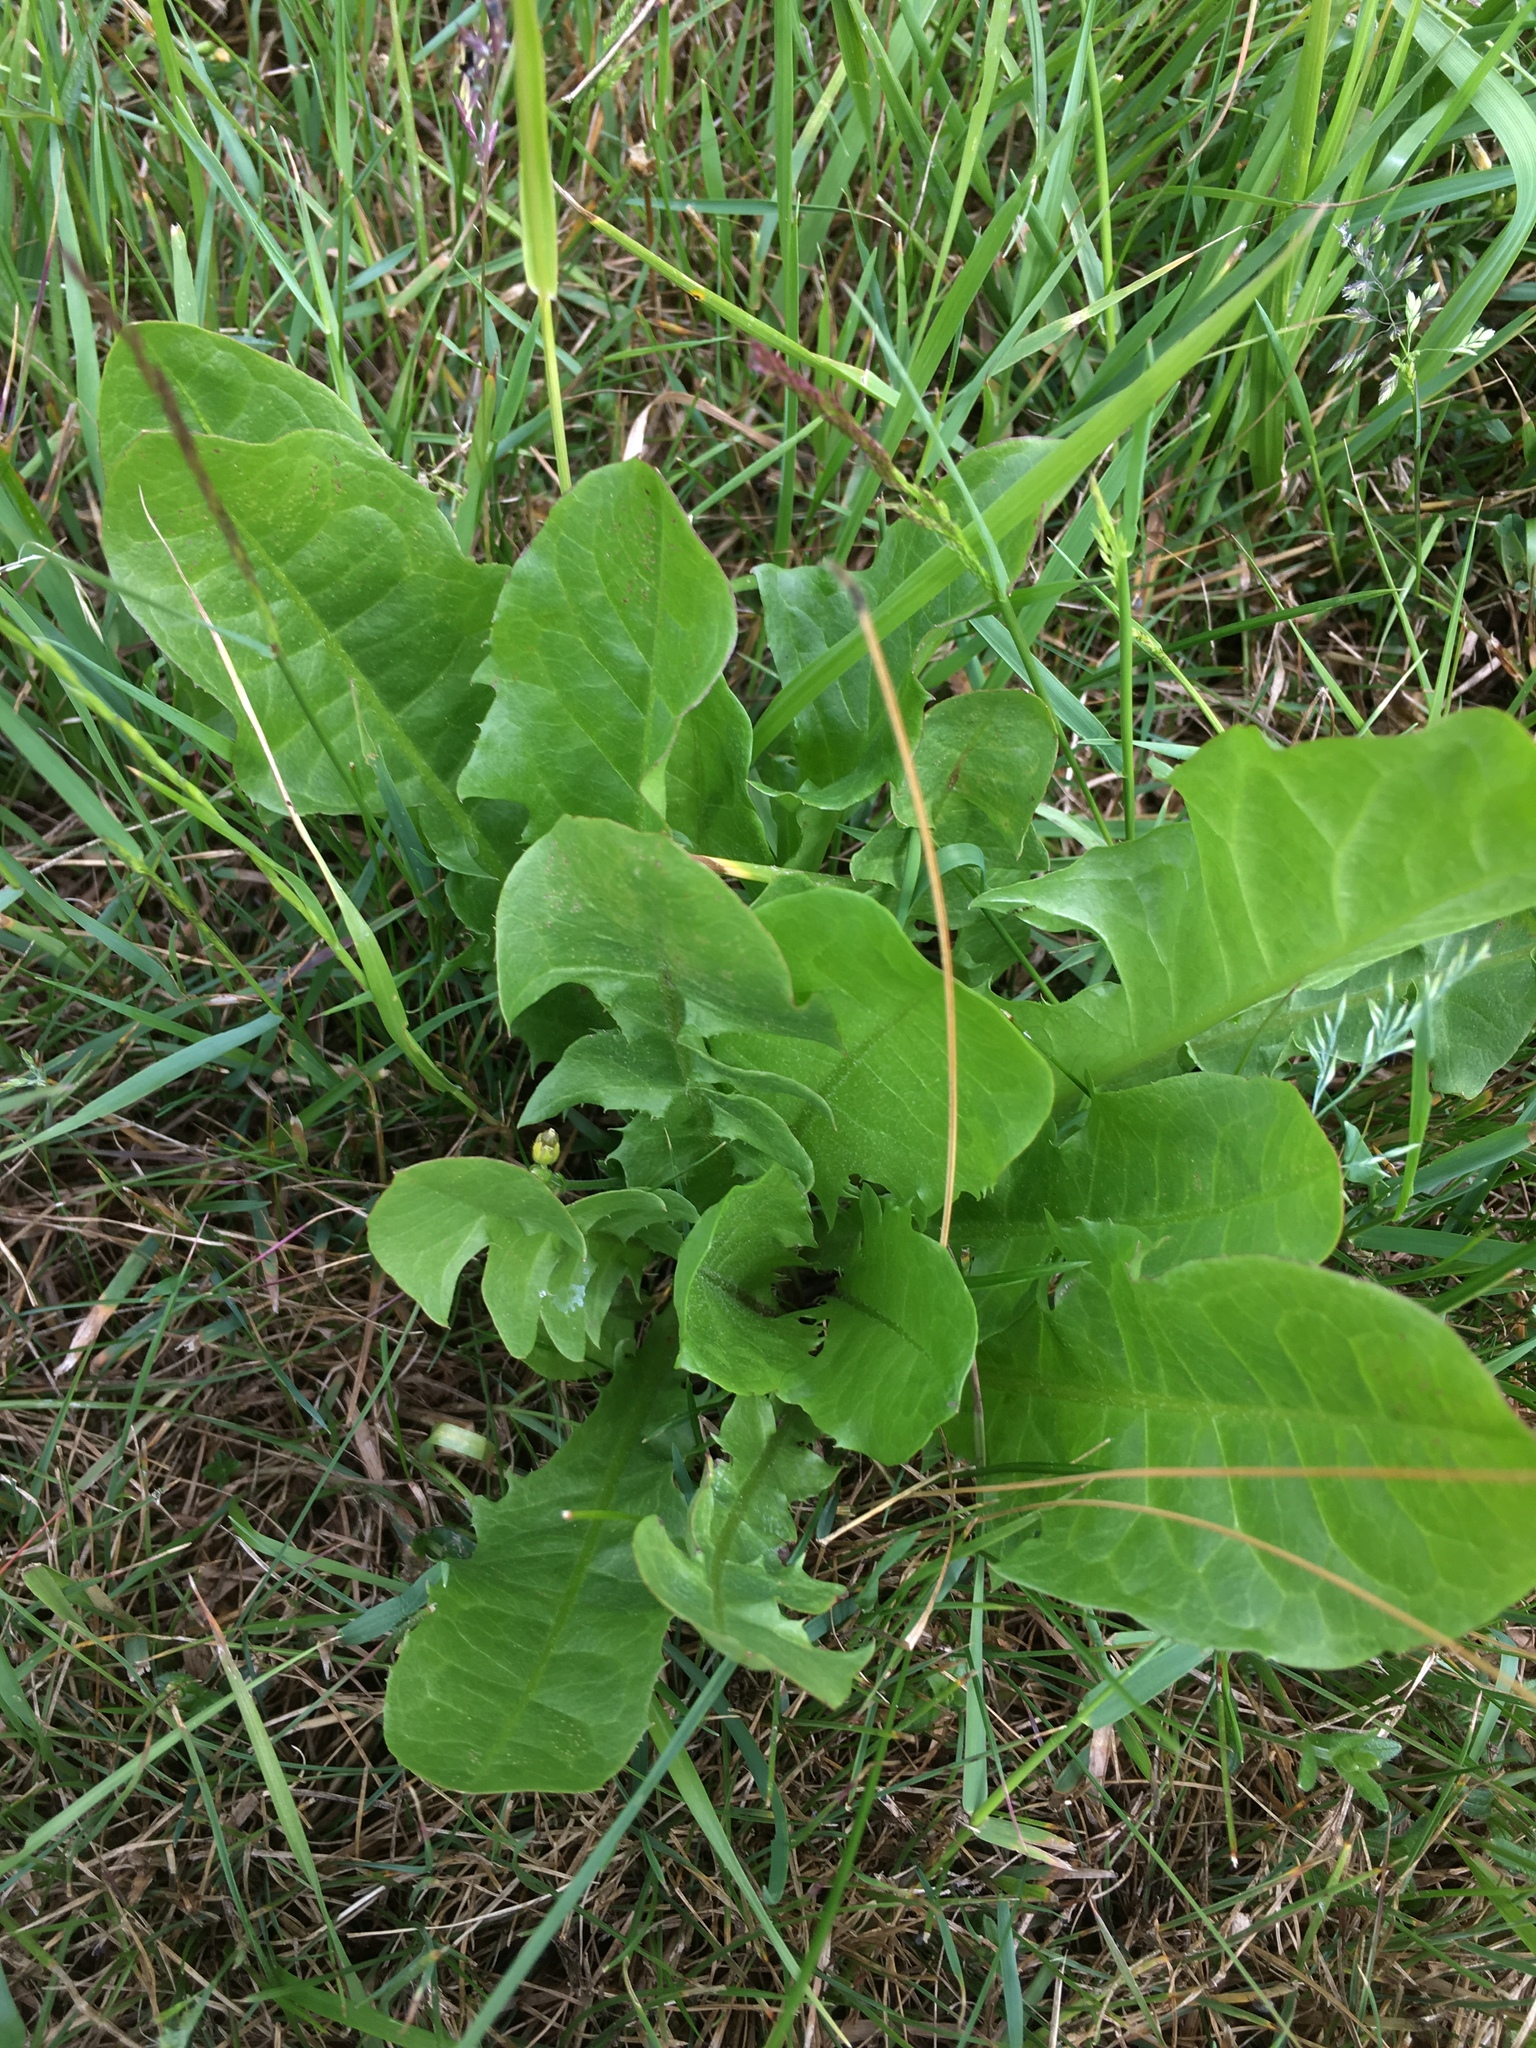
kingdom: Plantae
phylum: Tracheophyta
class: Magnoliopsida
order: Asterales
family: Asteraceae
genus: Taraxacum
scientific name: Taraxacum officinale
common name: Common dandelion
